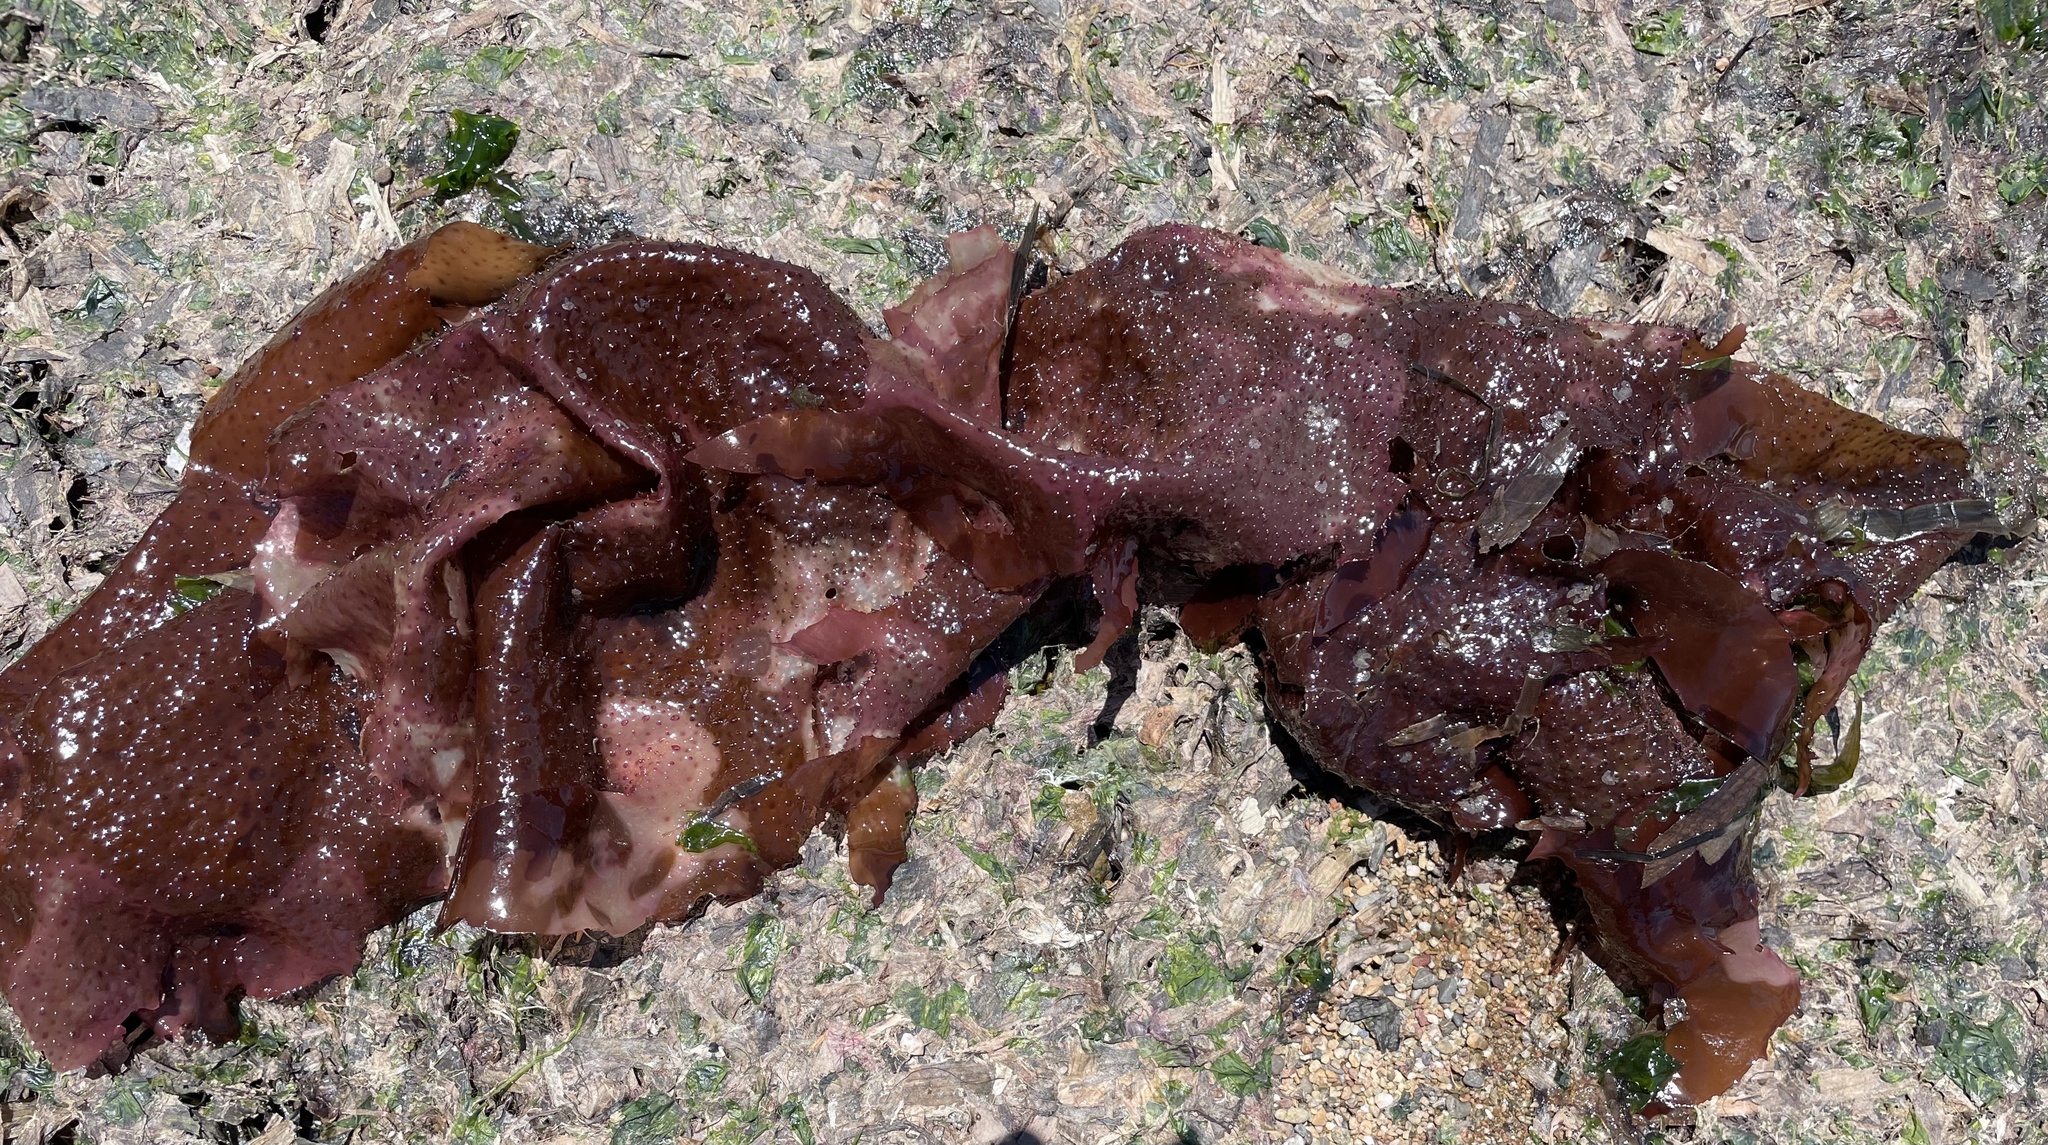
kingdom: Plantae
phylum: Rhodophyta
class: Florideophyceae
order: Gigartinales
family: Gigartinaceae
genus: Chondracanthus
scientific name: Chondracanthus exasperatus
